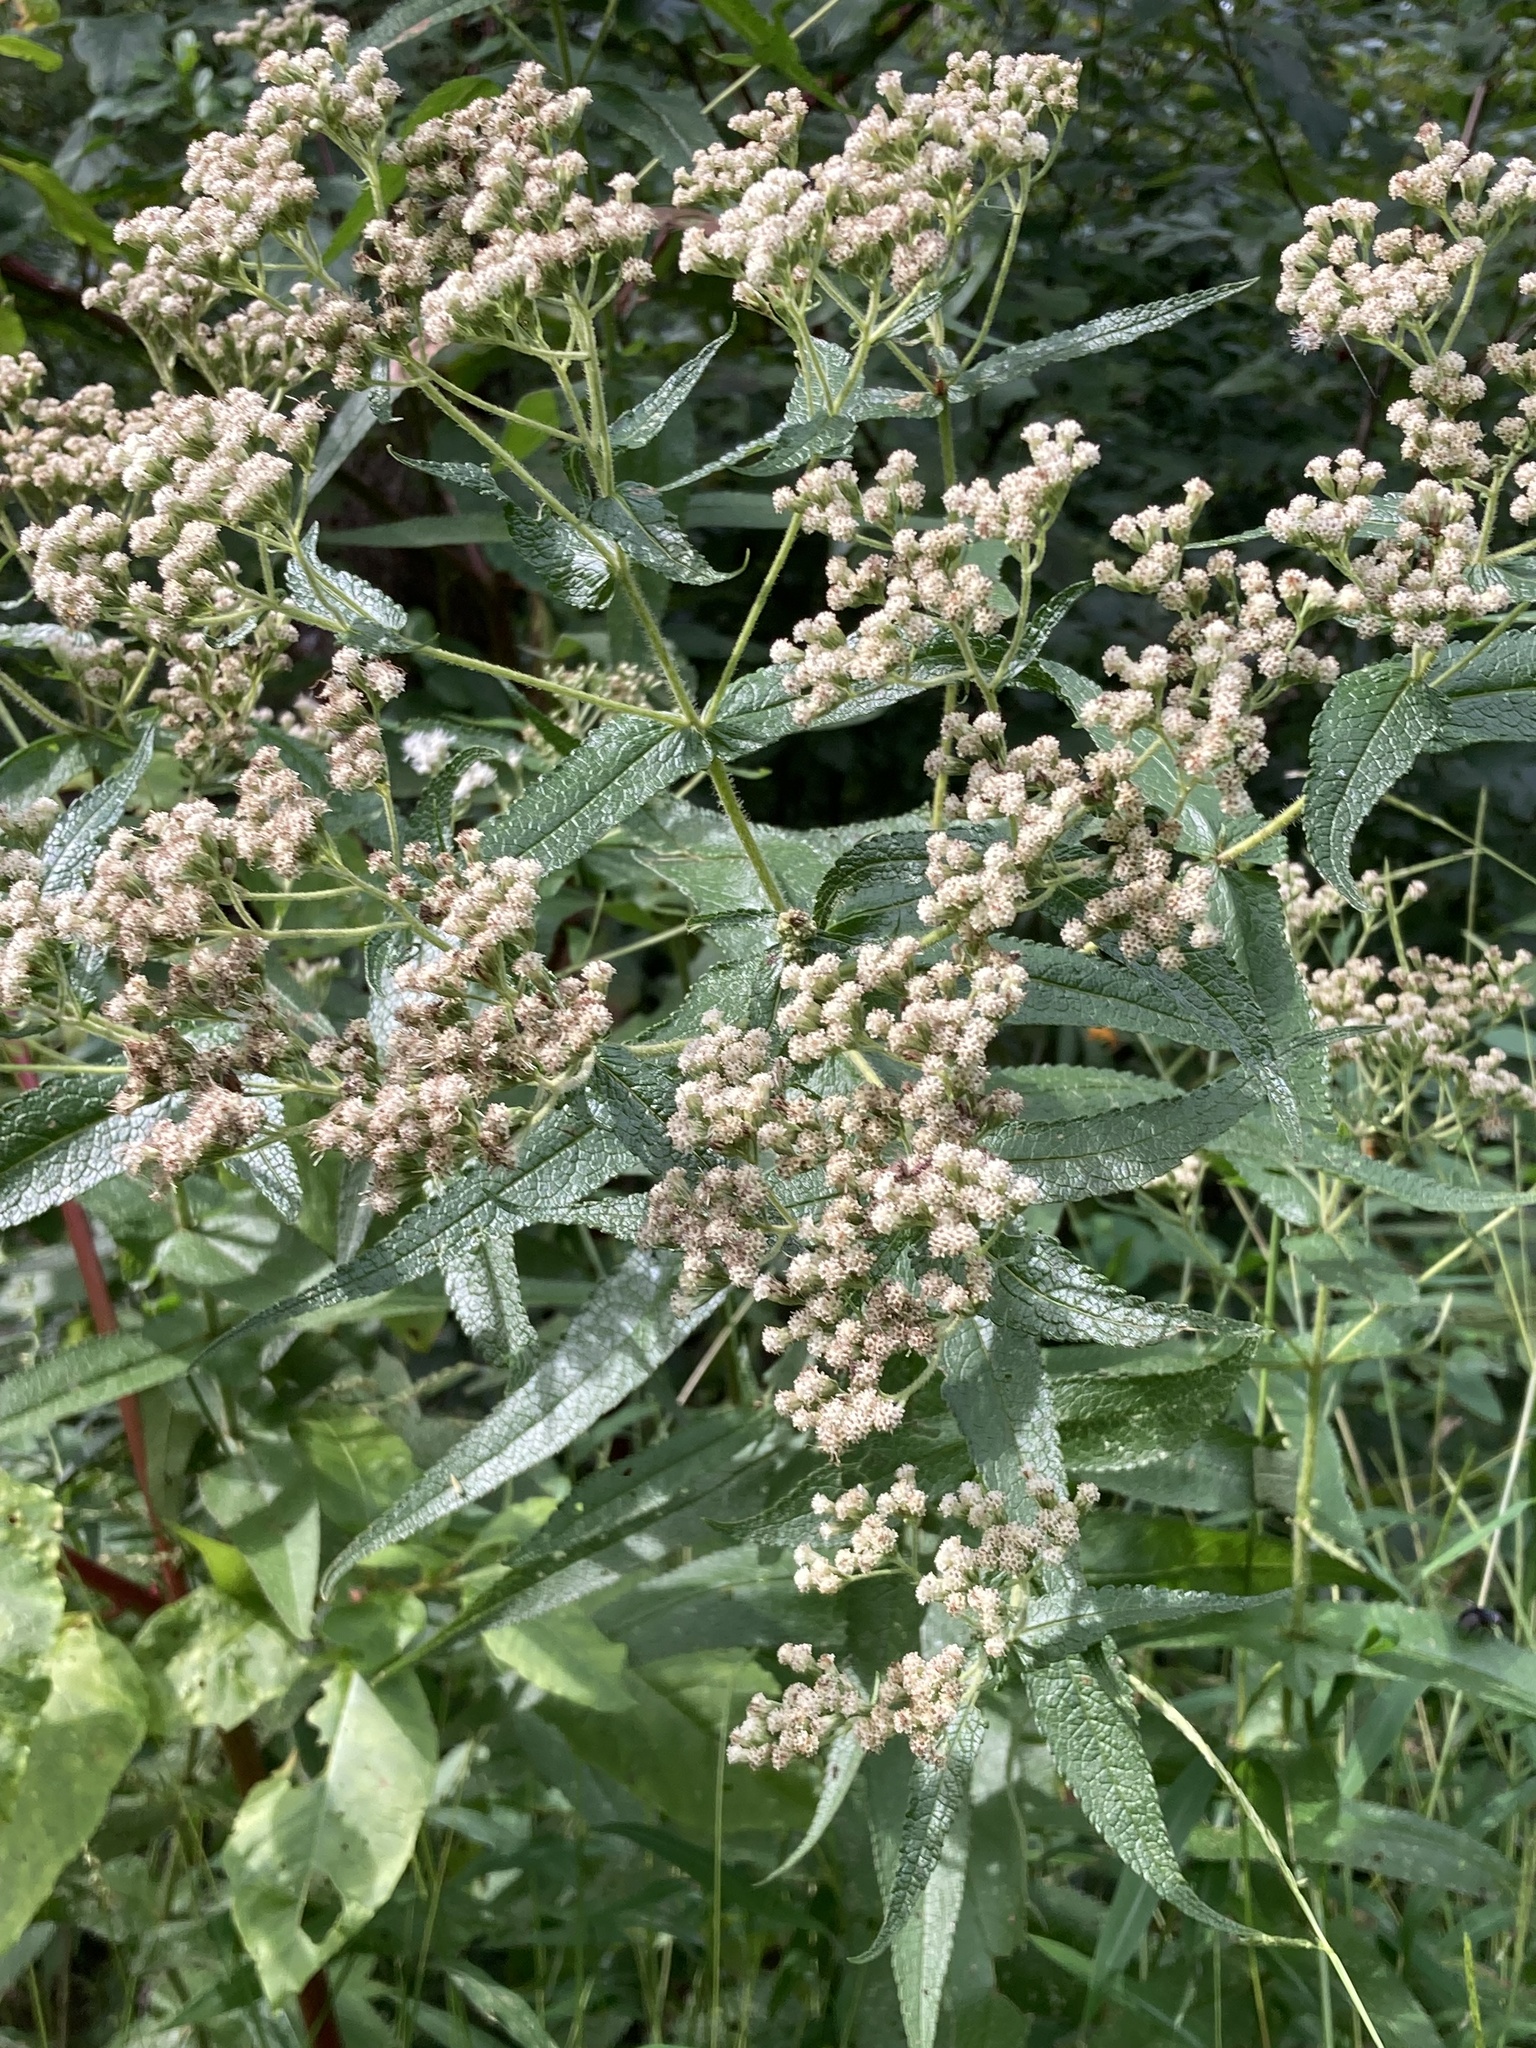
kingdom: Plantae
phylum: Tracheophyta
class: Magnoliopsida
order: Asterales
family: Asteraceae
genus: Eupatorium
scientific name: Eupatorium perfoliatum
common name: Boneset
